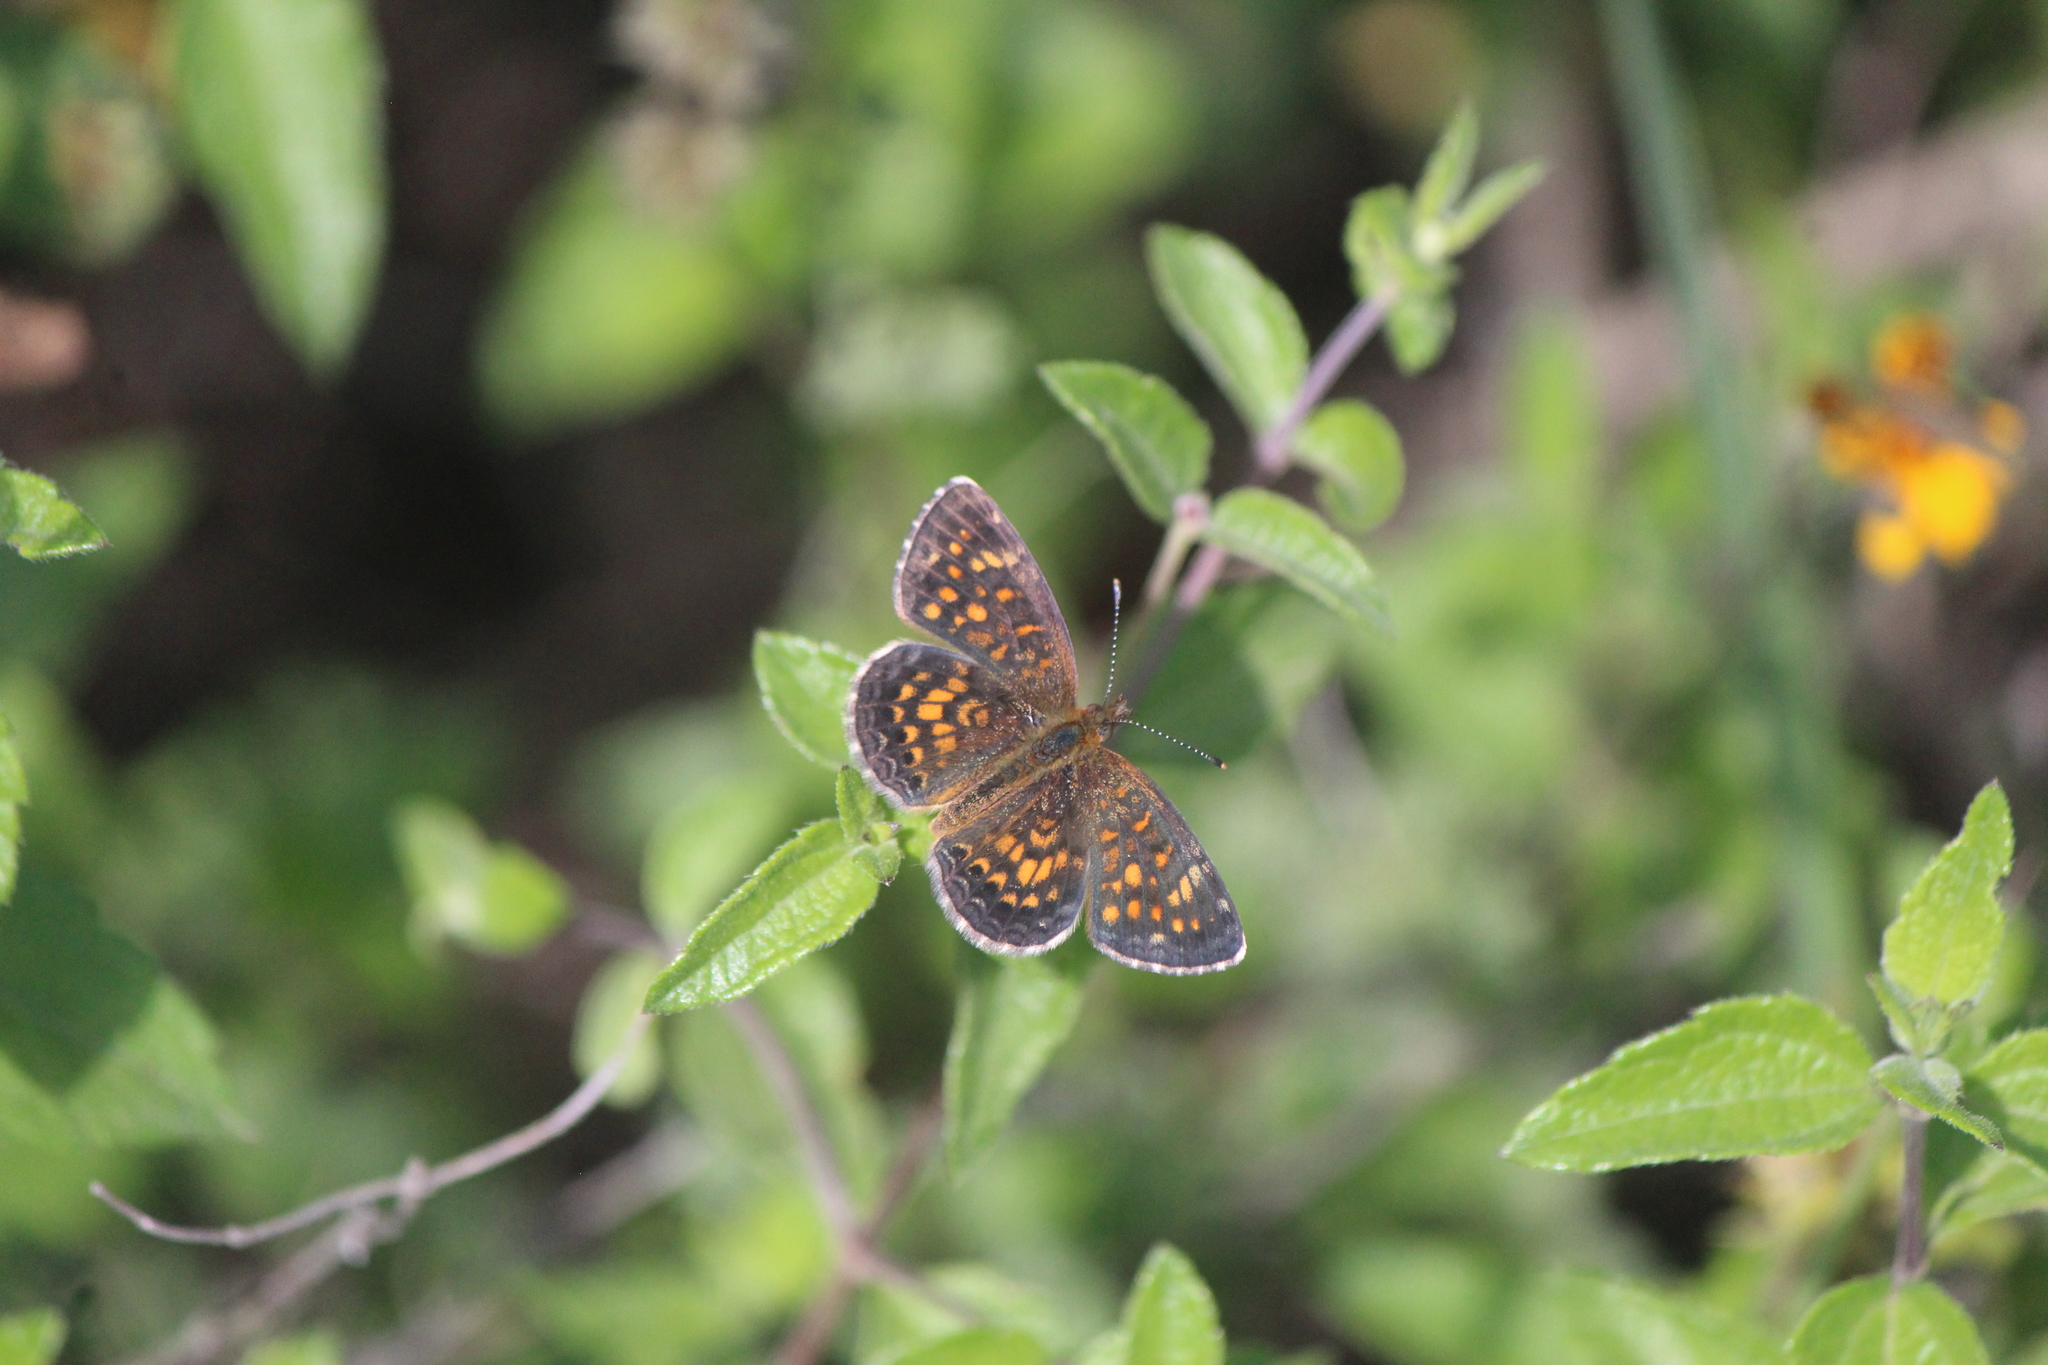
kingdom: Animalia
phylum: Arthropoda
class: Insecta
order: Lepidoptera
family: Nymphalidae
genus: Phyciodes
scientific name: Phyciodes vesta
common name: Vesta crescent
